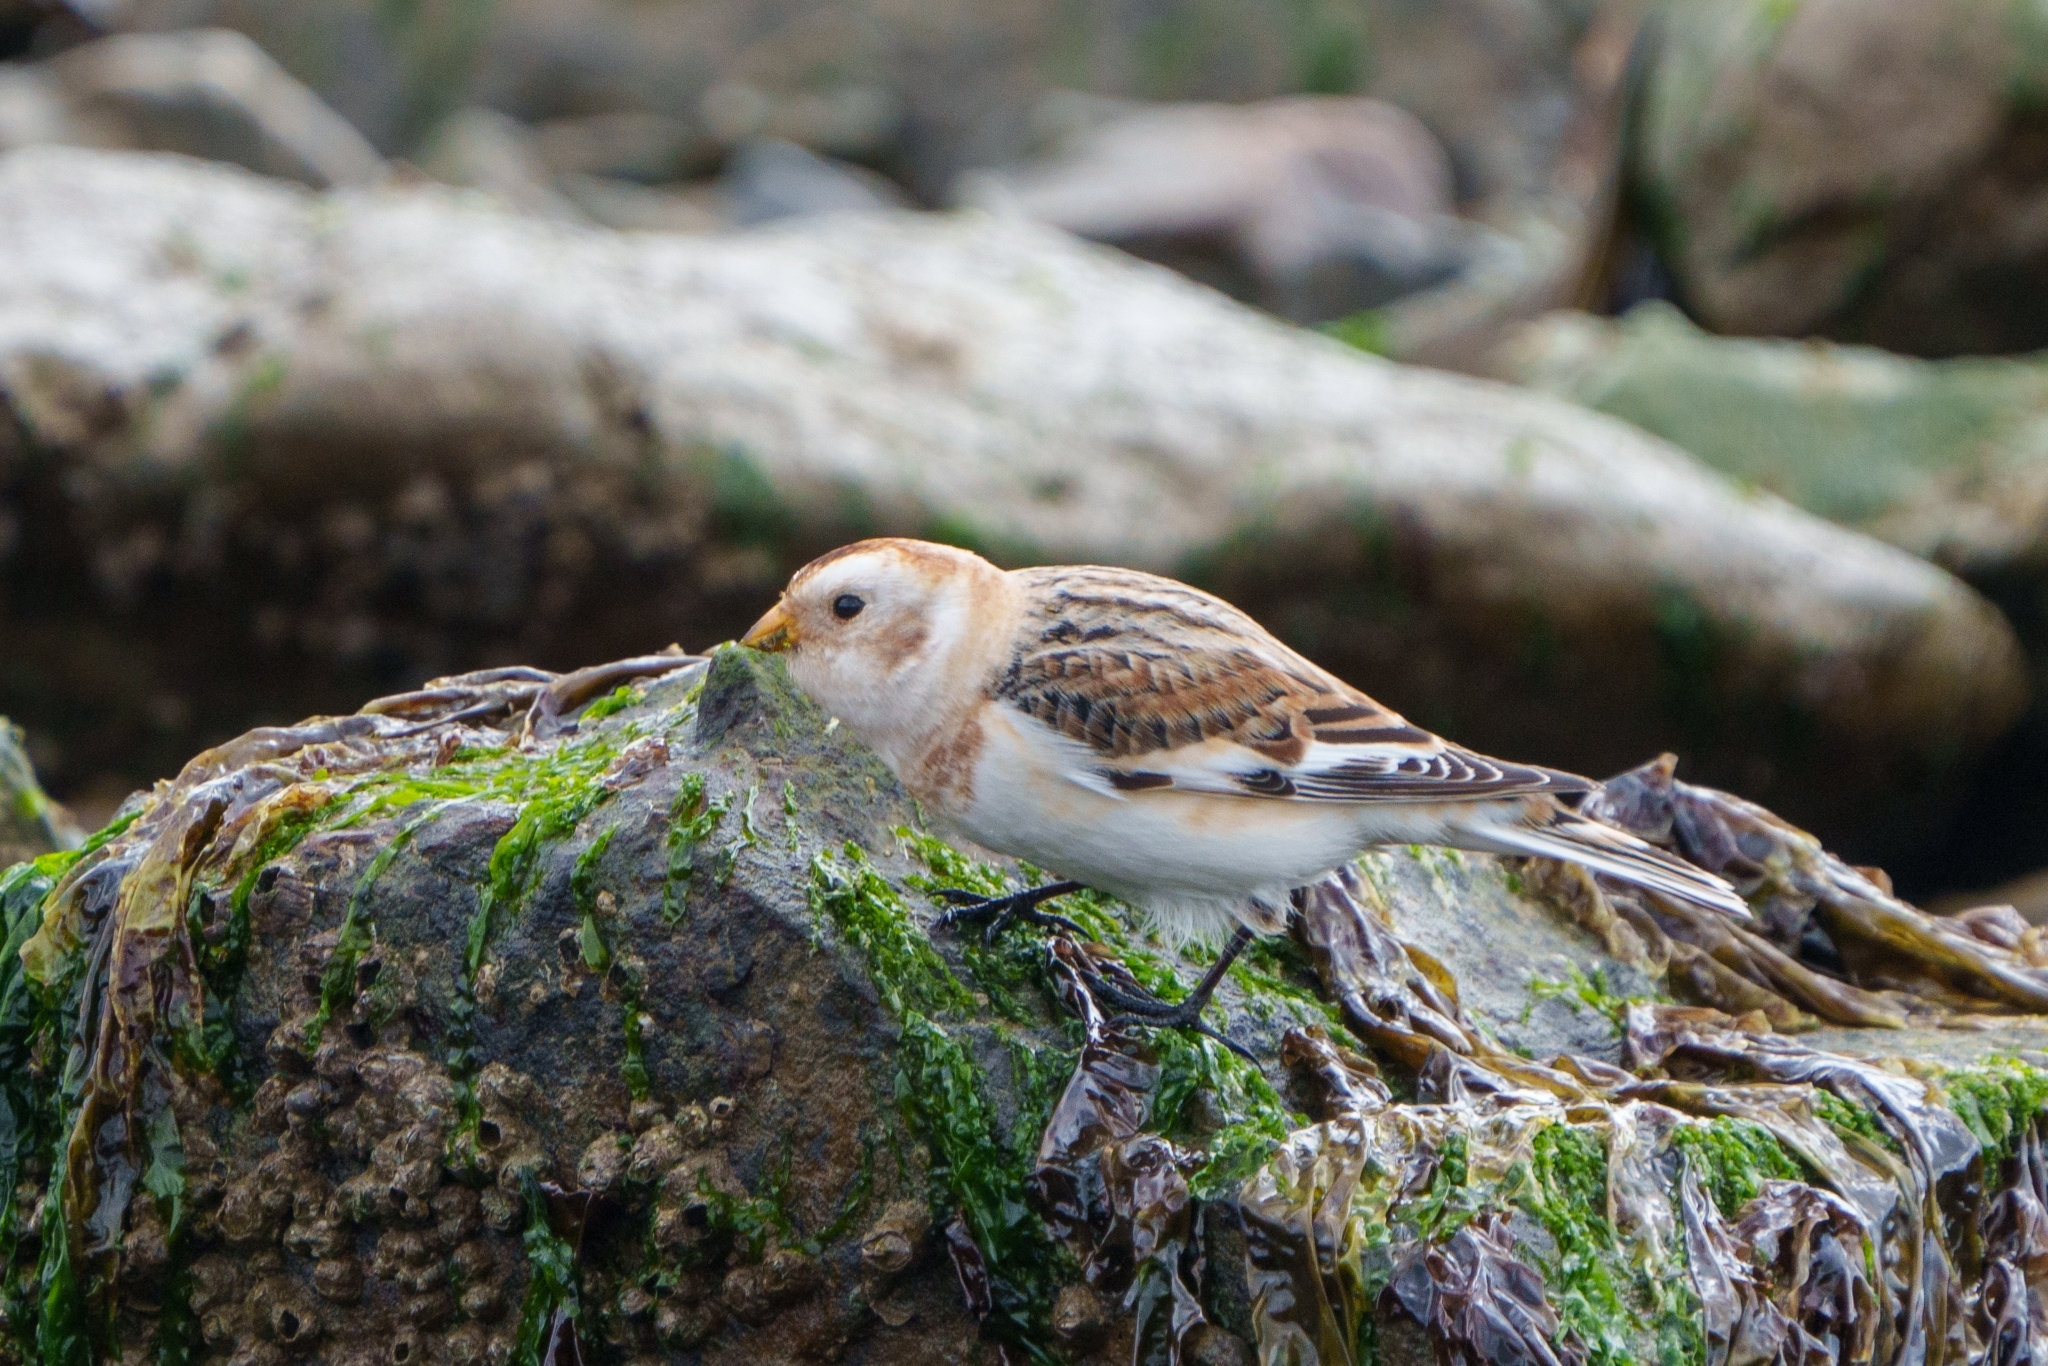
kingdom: Animalia
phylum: Chordata
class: Aves
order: Passeriformes
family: Calcariidae
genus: Plectrophenax
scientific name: Plectrophenax nivalis
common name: Snow bunting
